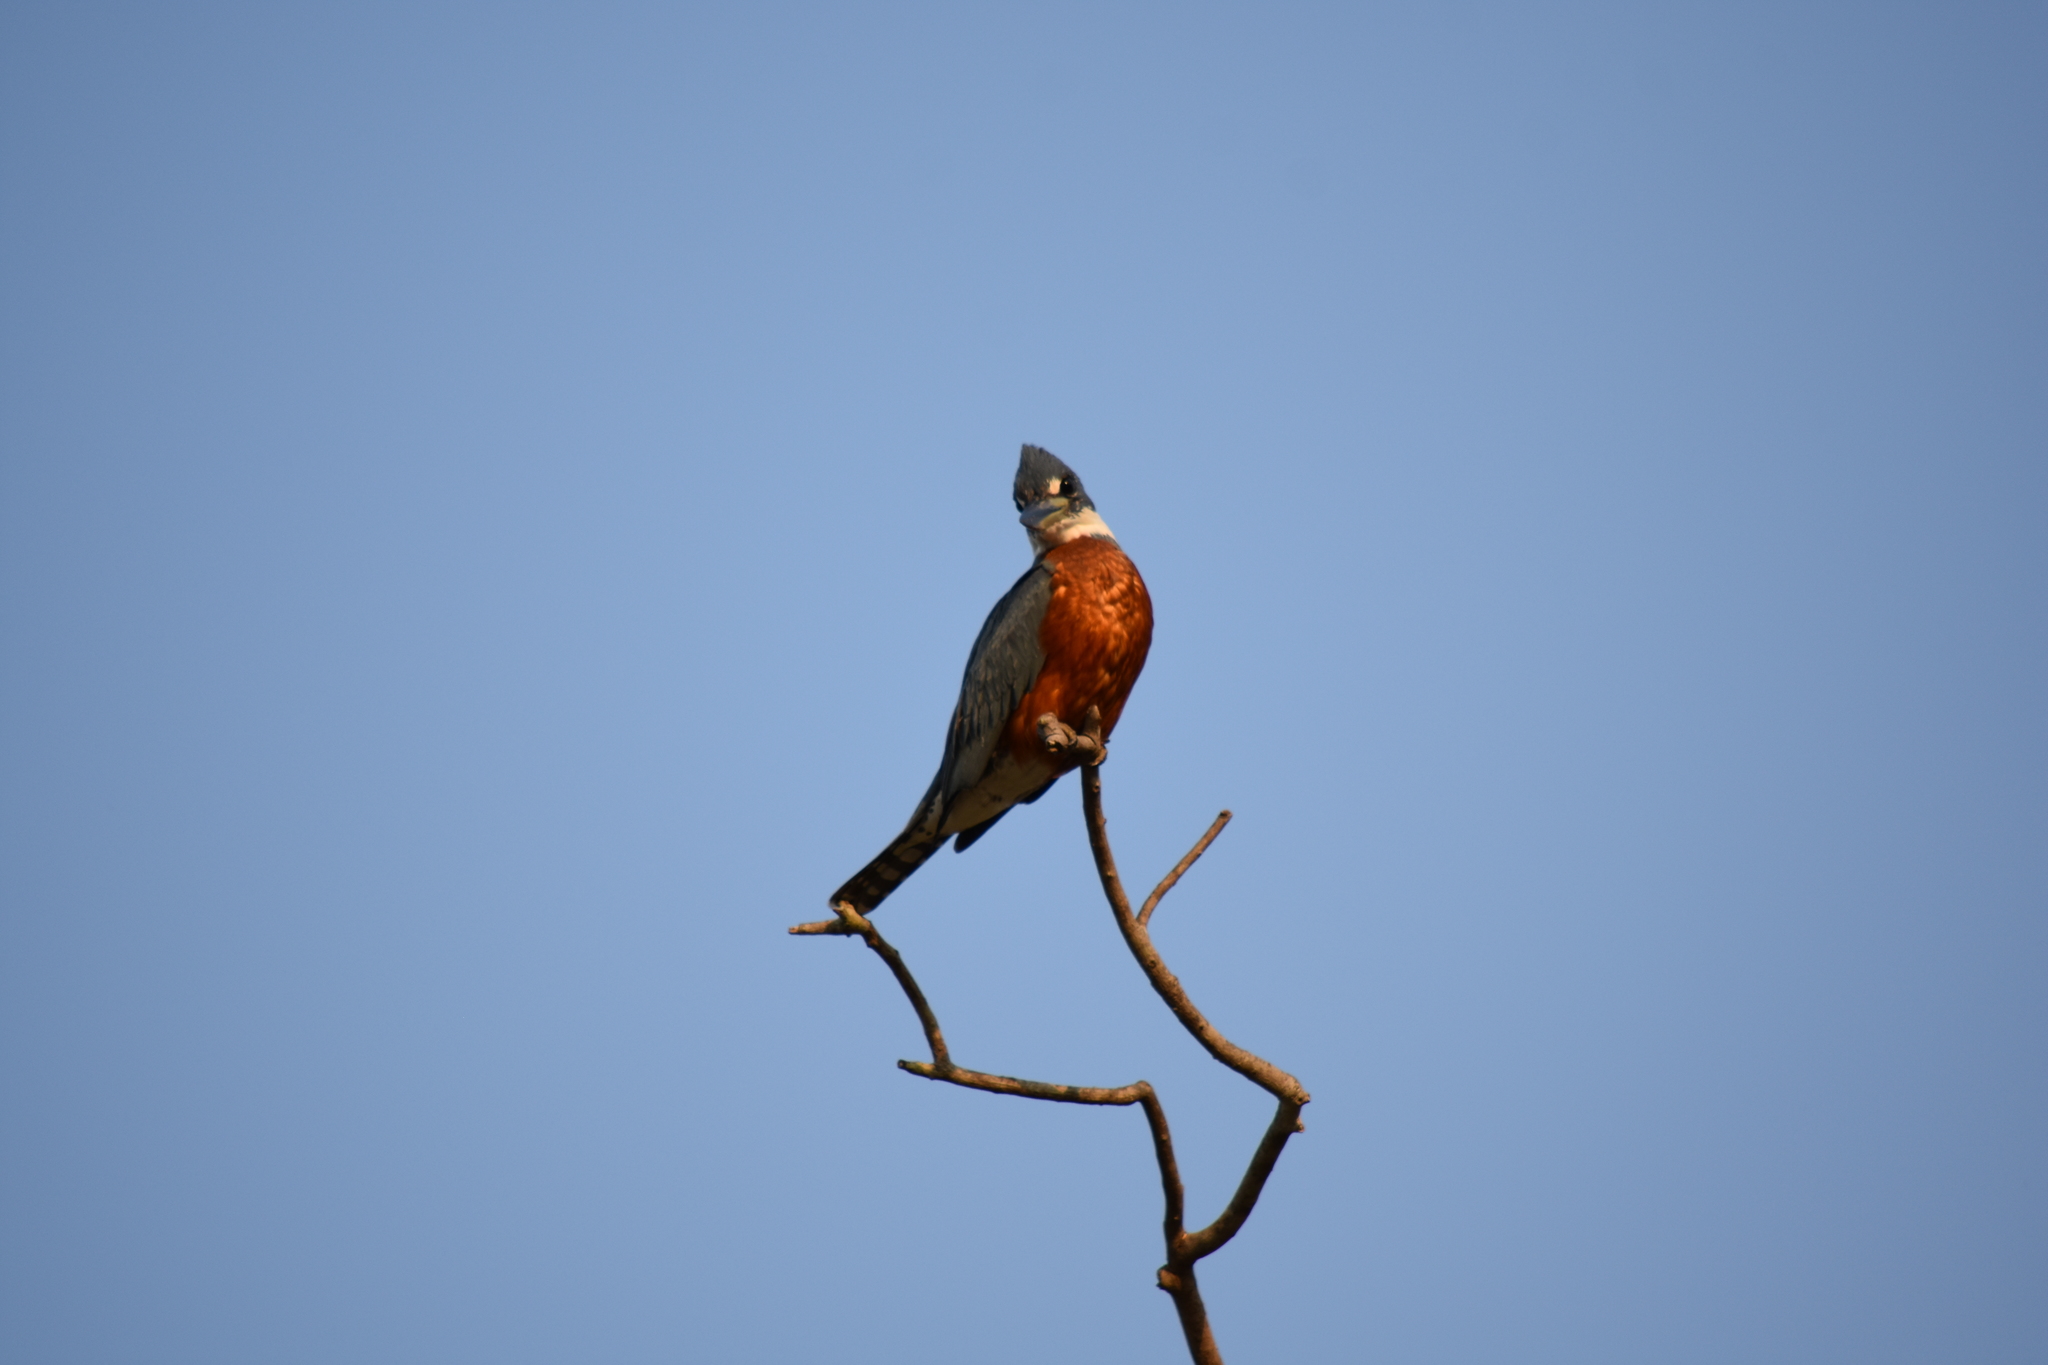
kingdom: Animalia
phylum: Chordata
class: Aves
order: Coraciiformes
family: Alcedinidae
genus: Megaceryle
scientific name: Megaceryle torquata
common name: Ringed kingfisher
